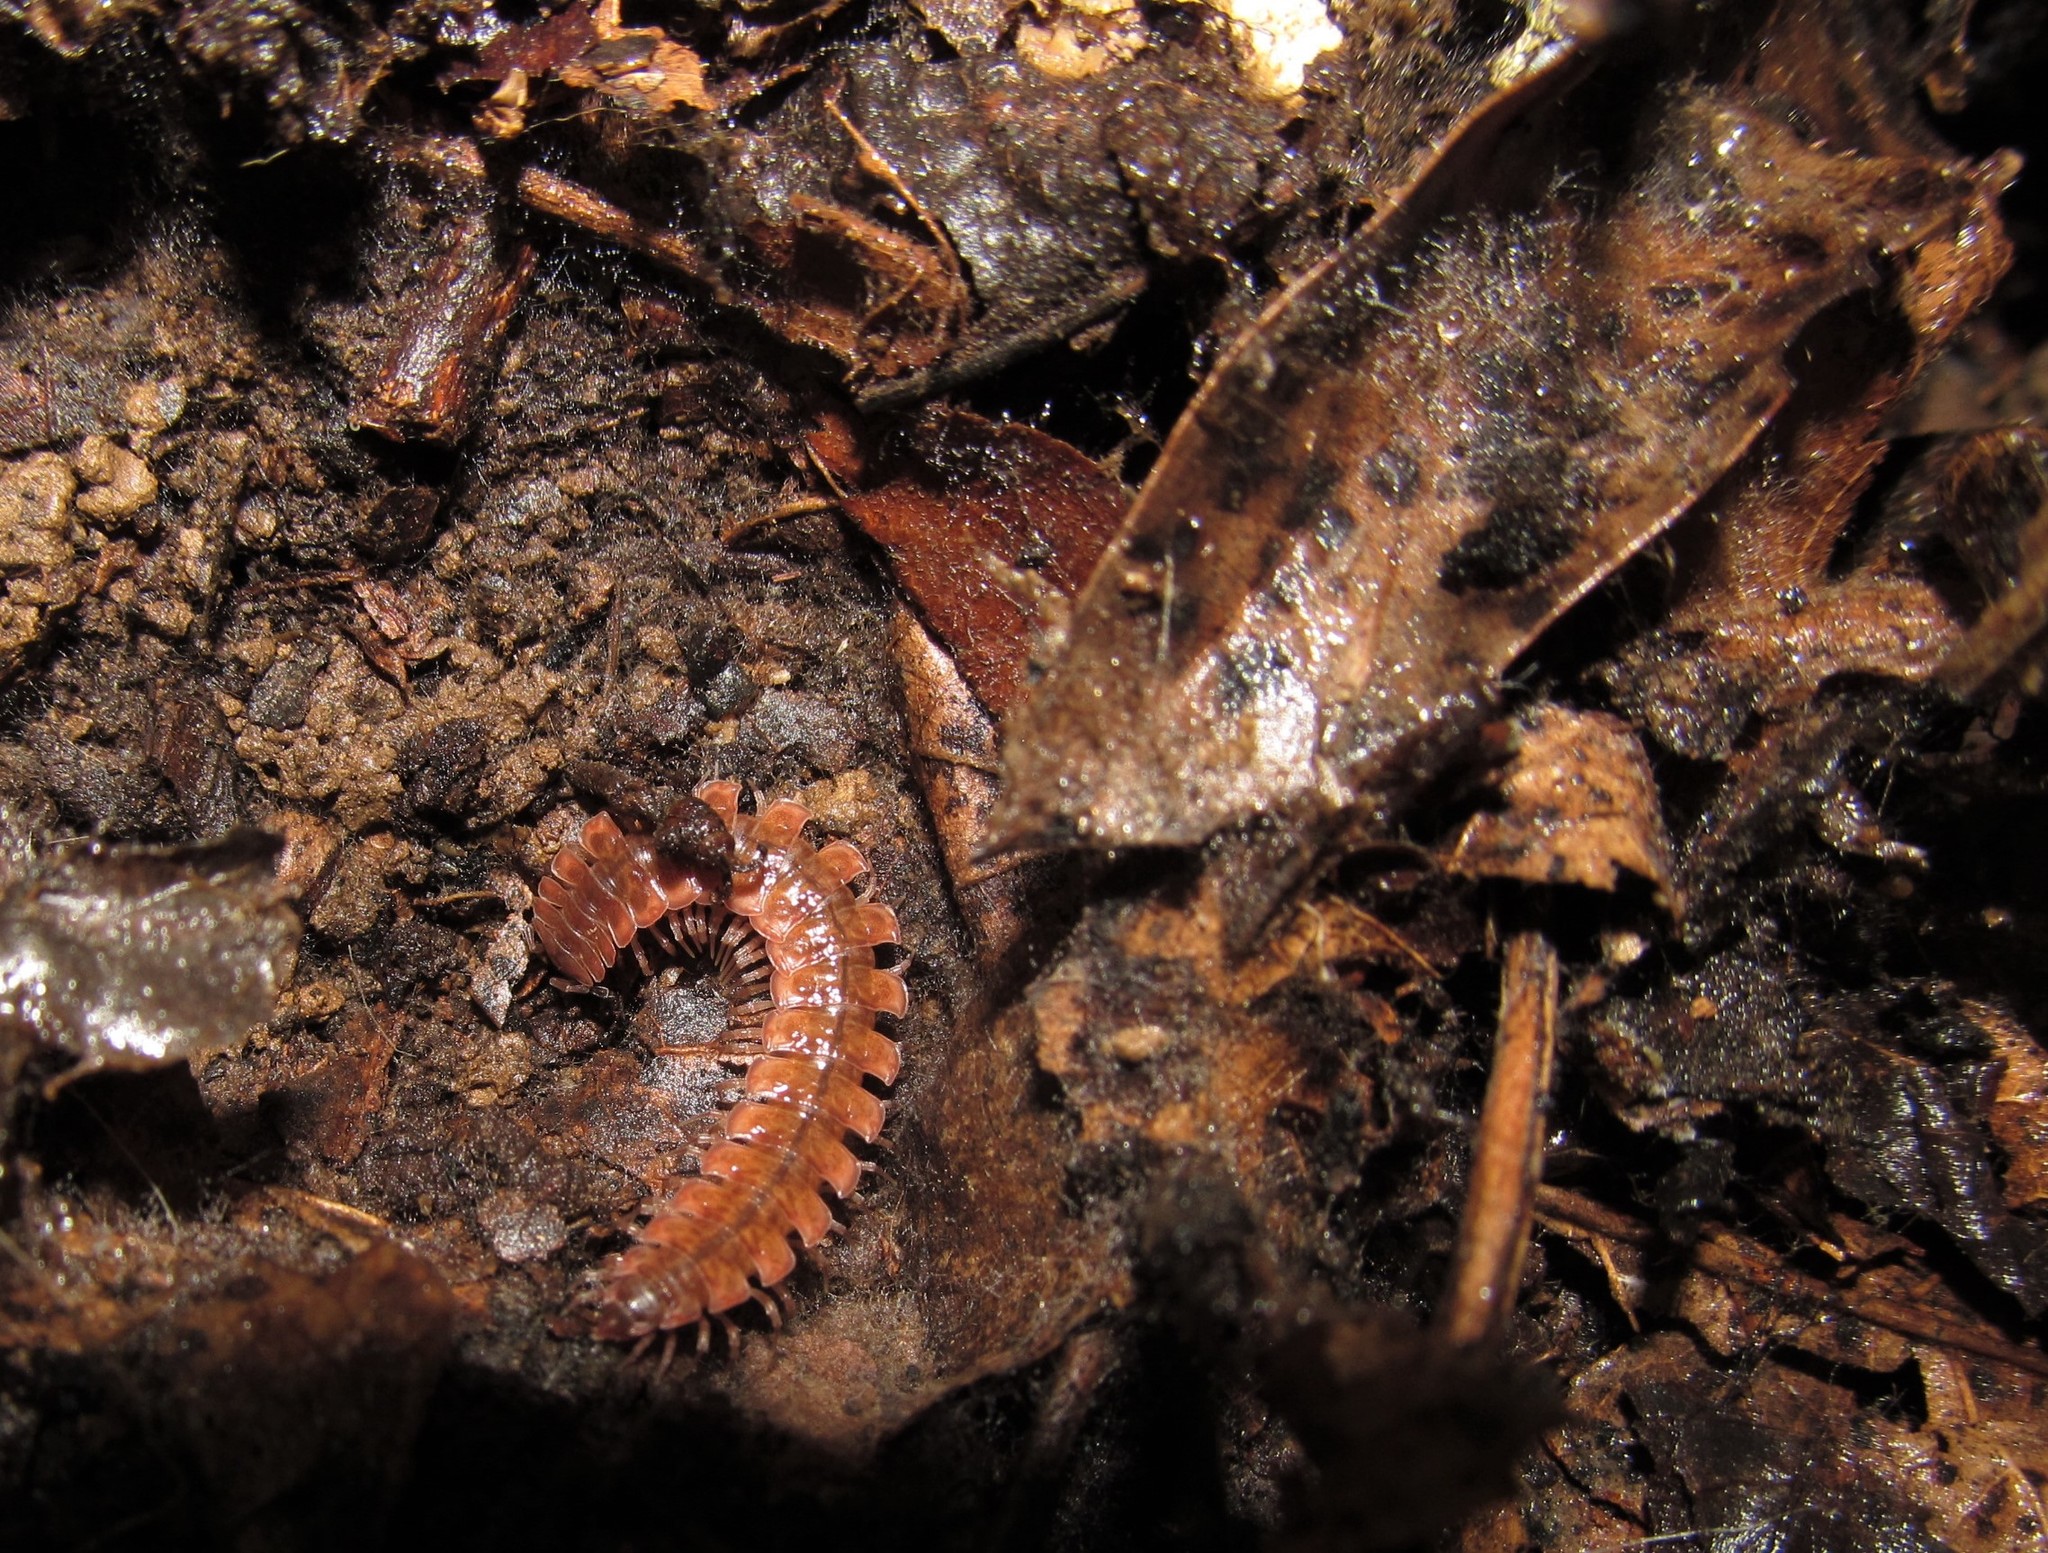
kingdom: Animalia
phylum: Arthropoda
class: Diplopoda
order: Polydesmida
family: Polydesmidae
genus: Pseudopolydesmus
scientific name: Pseudopolydesmus serratus
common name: Common pink flat-back millipede
